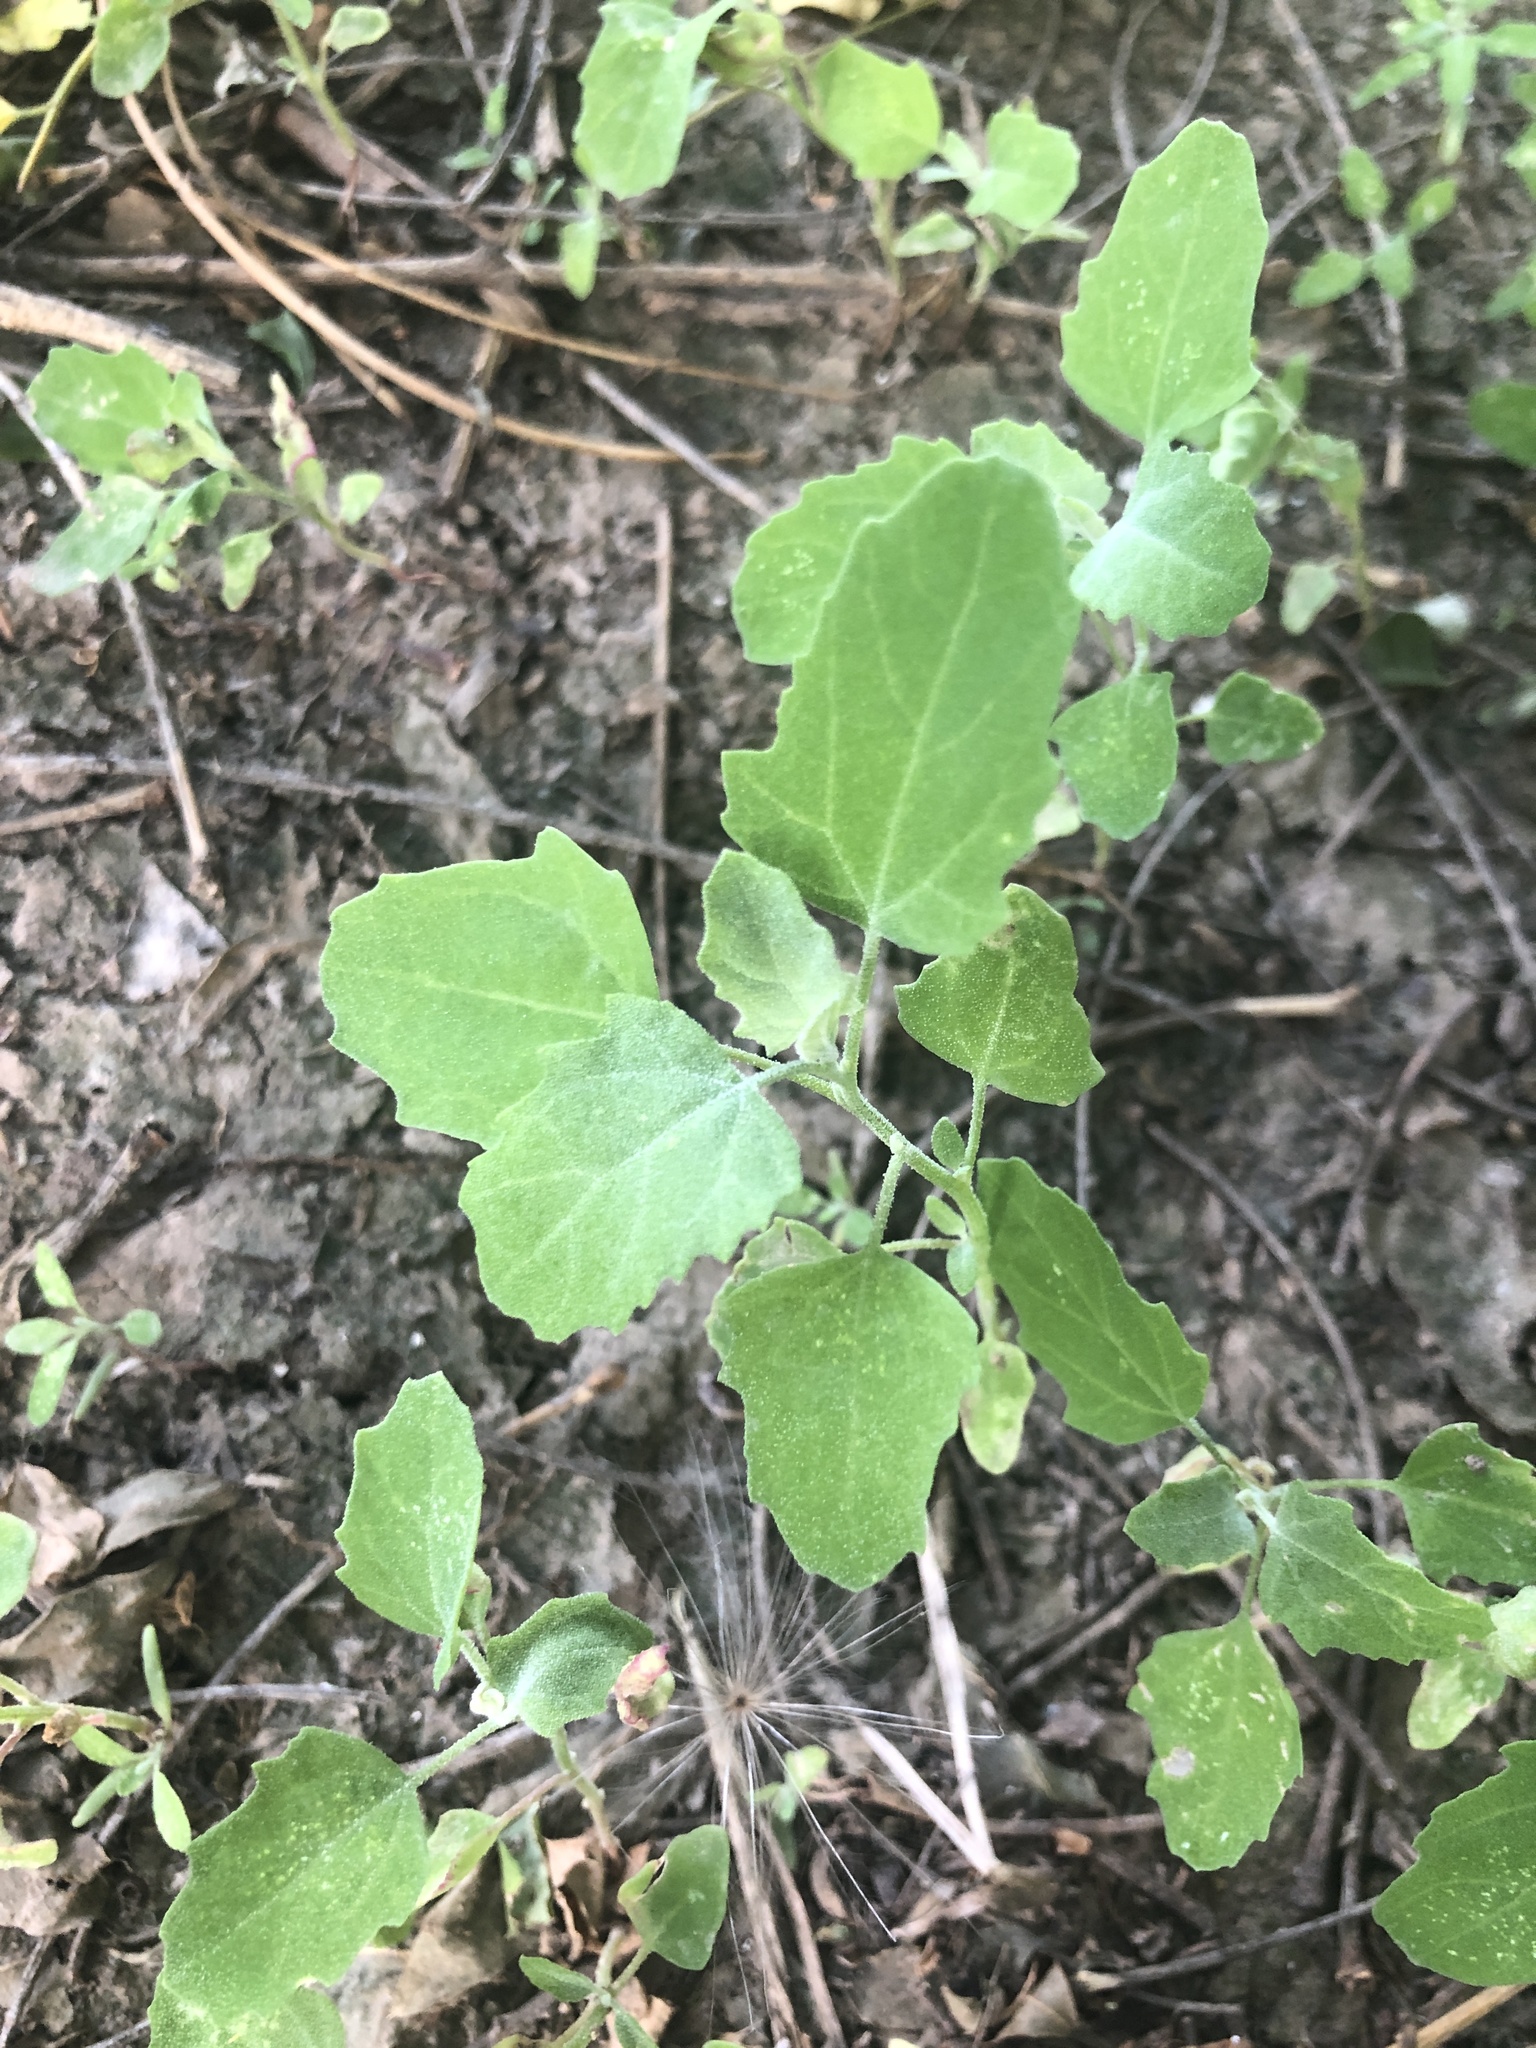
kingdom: Plantae
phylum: Tracheophyta
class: Magnoliopsida
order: Caryophyllales
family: Amaranthaceae
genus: Chenopodium
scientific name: Chenopodium album
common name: Fat-hen
